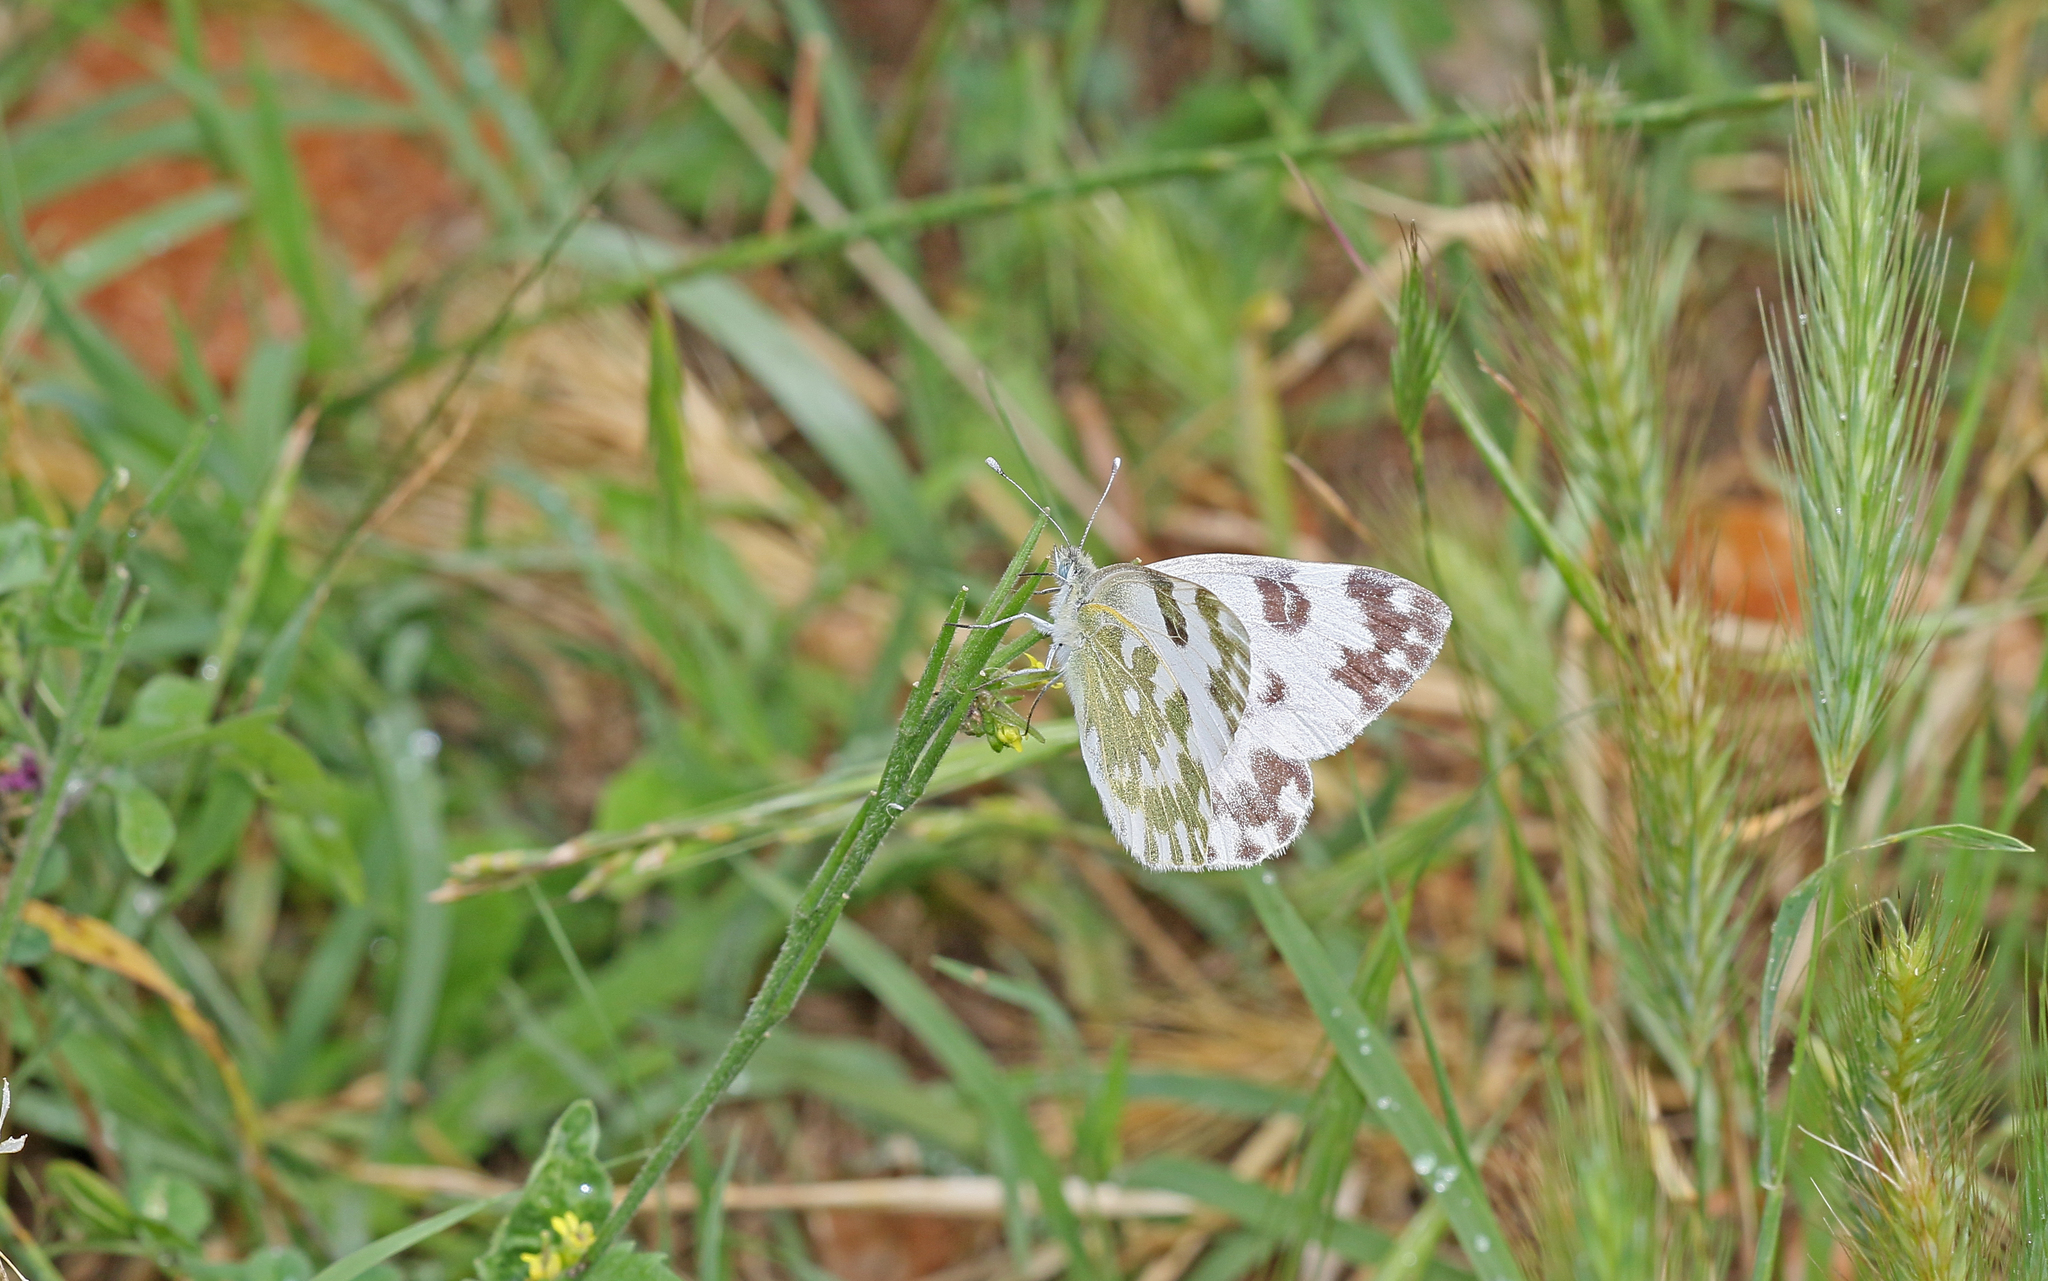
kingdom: Animalia
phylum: Arthropoda
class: Insecta
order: Lepidoptera
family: Pieridae
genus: Pontia
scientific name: Pontia edusa
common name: Eastern bath white
